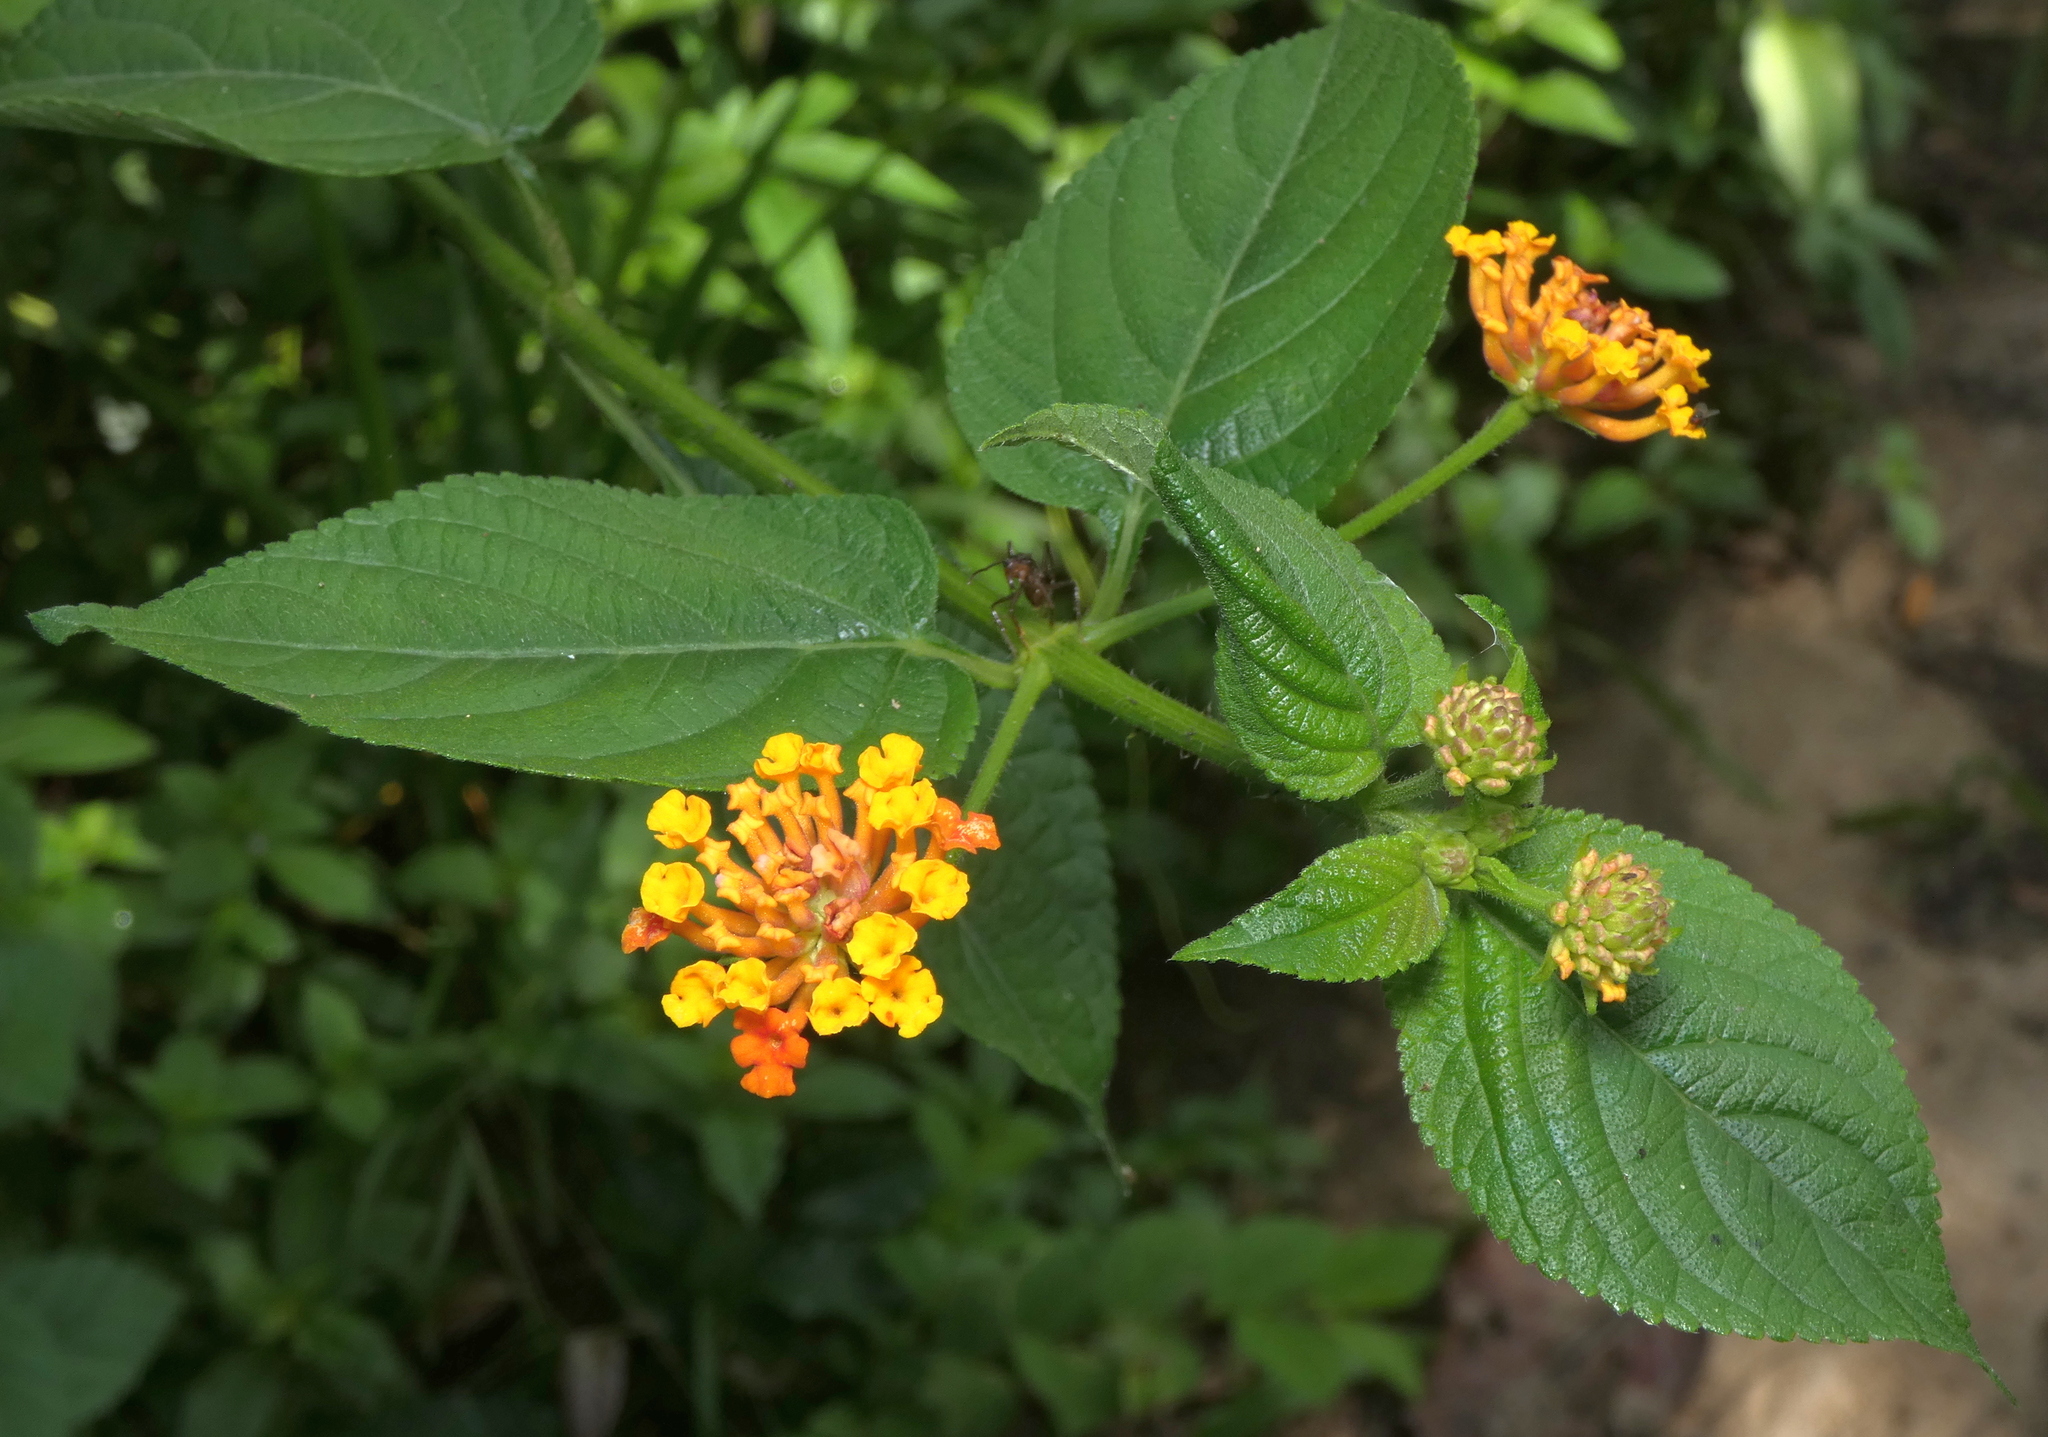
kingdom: Plantae
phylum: Tracheophyta
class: Magnoliopsida
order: Lamiales
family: Verbenaceae
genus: Lantana
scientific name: Lantana camara
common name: Lantana
